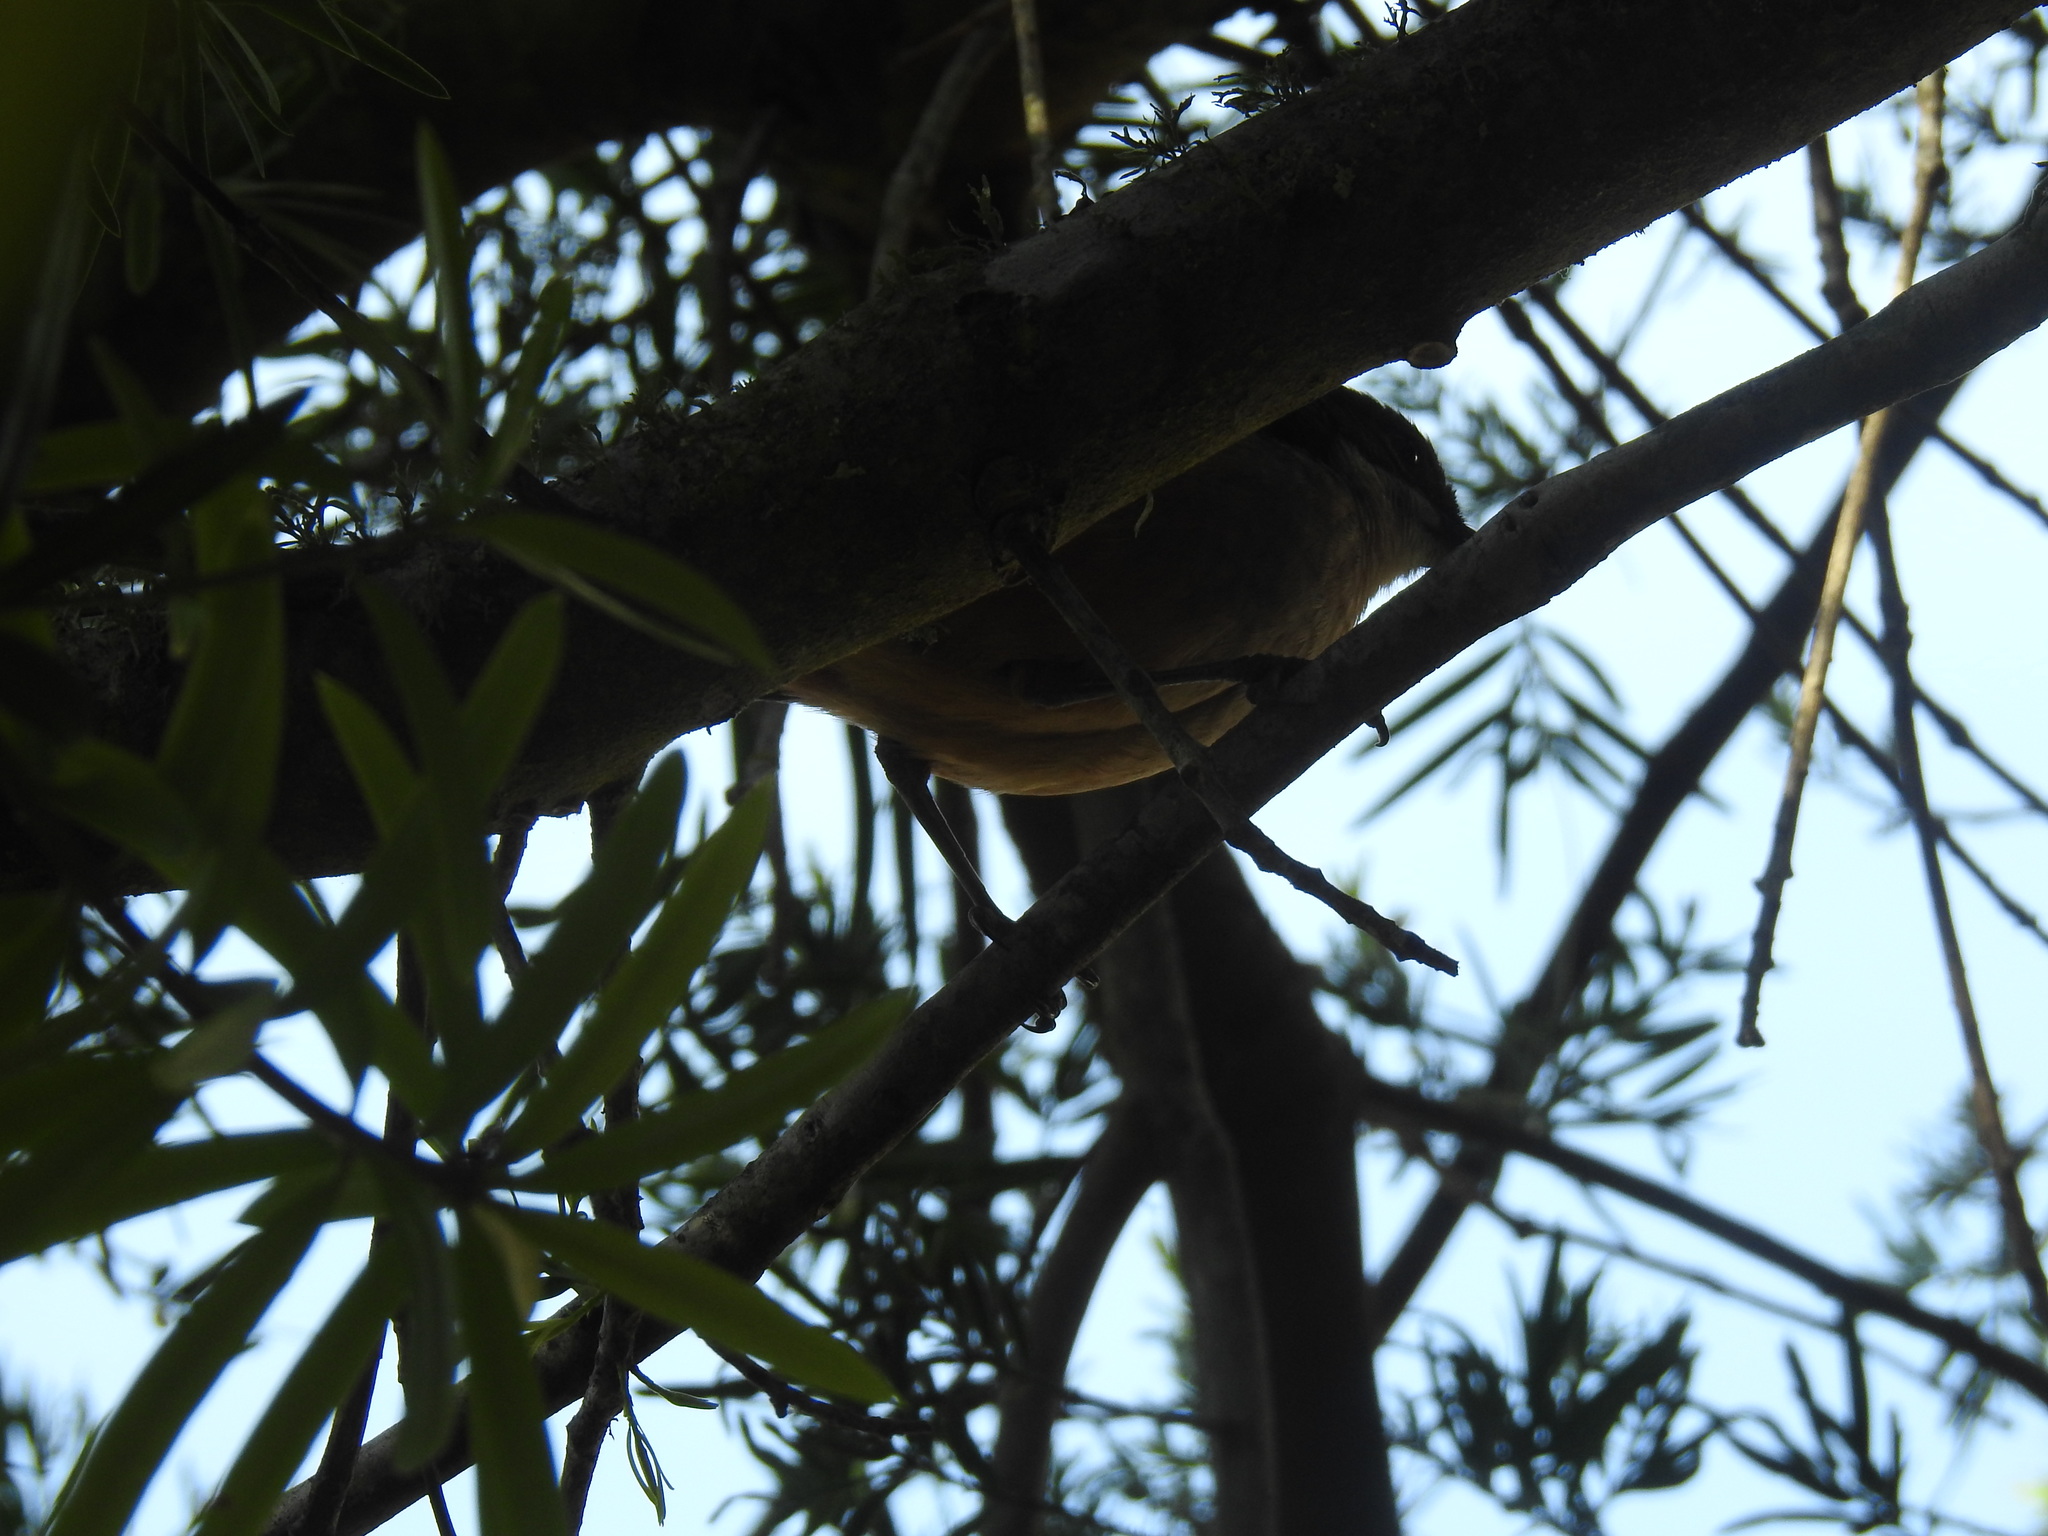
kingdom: Animalia
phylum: Chordata
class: Aves
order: Passeriformes
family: Malaconotidae
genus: Laniarius
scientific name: Laniarius ferrugineus
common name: Southern boubou
